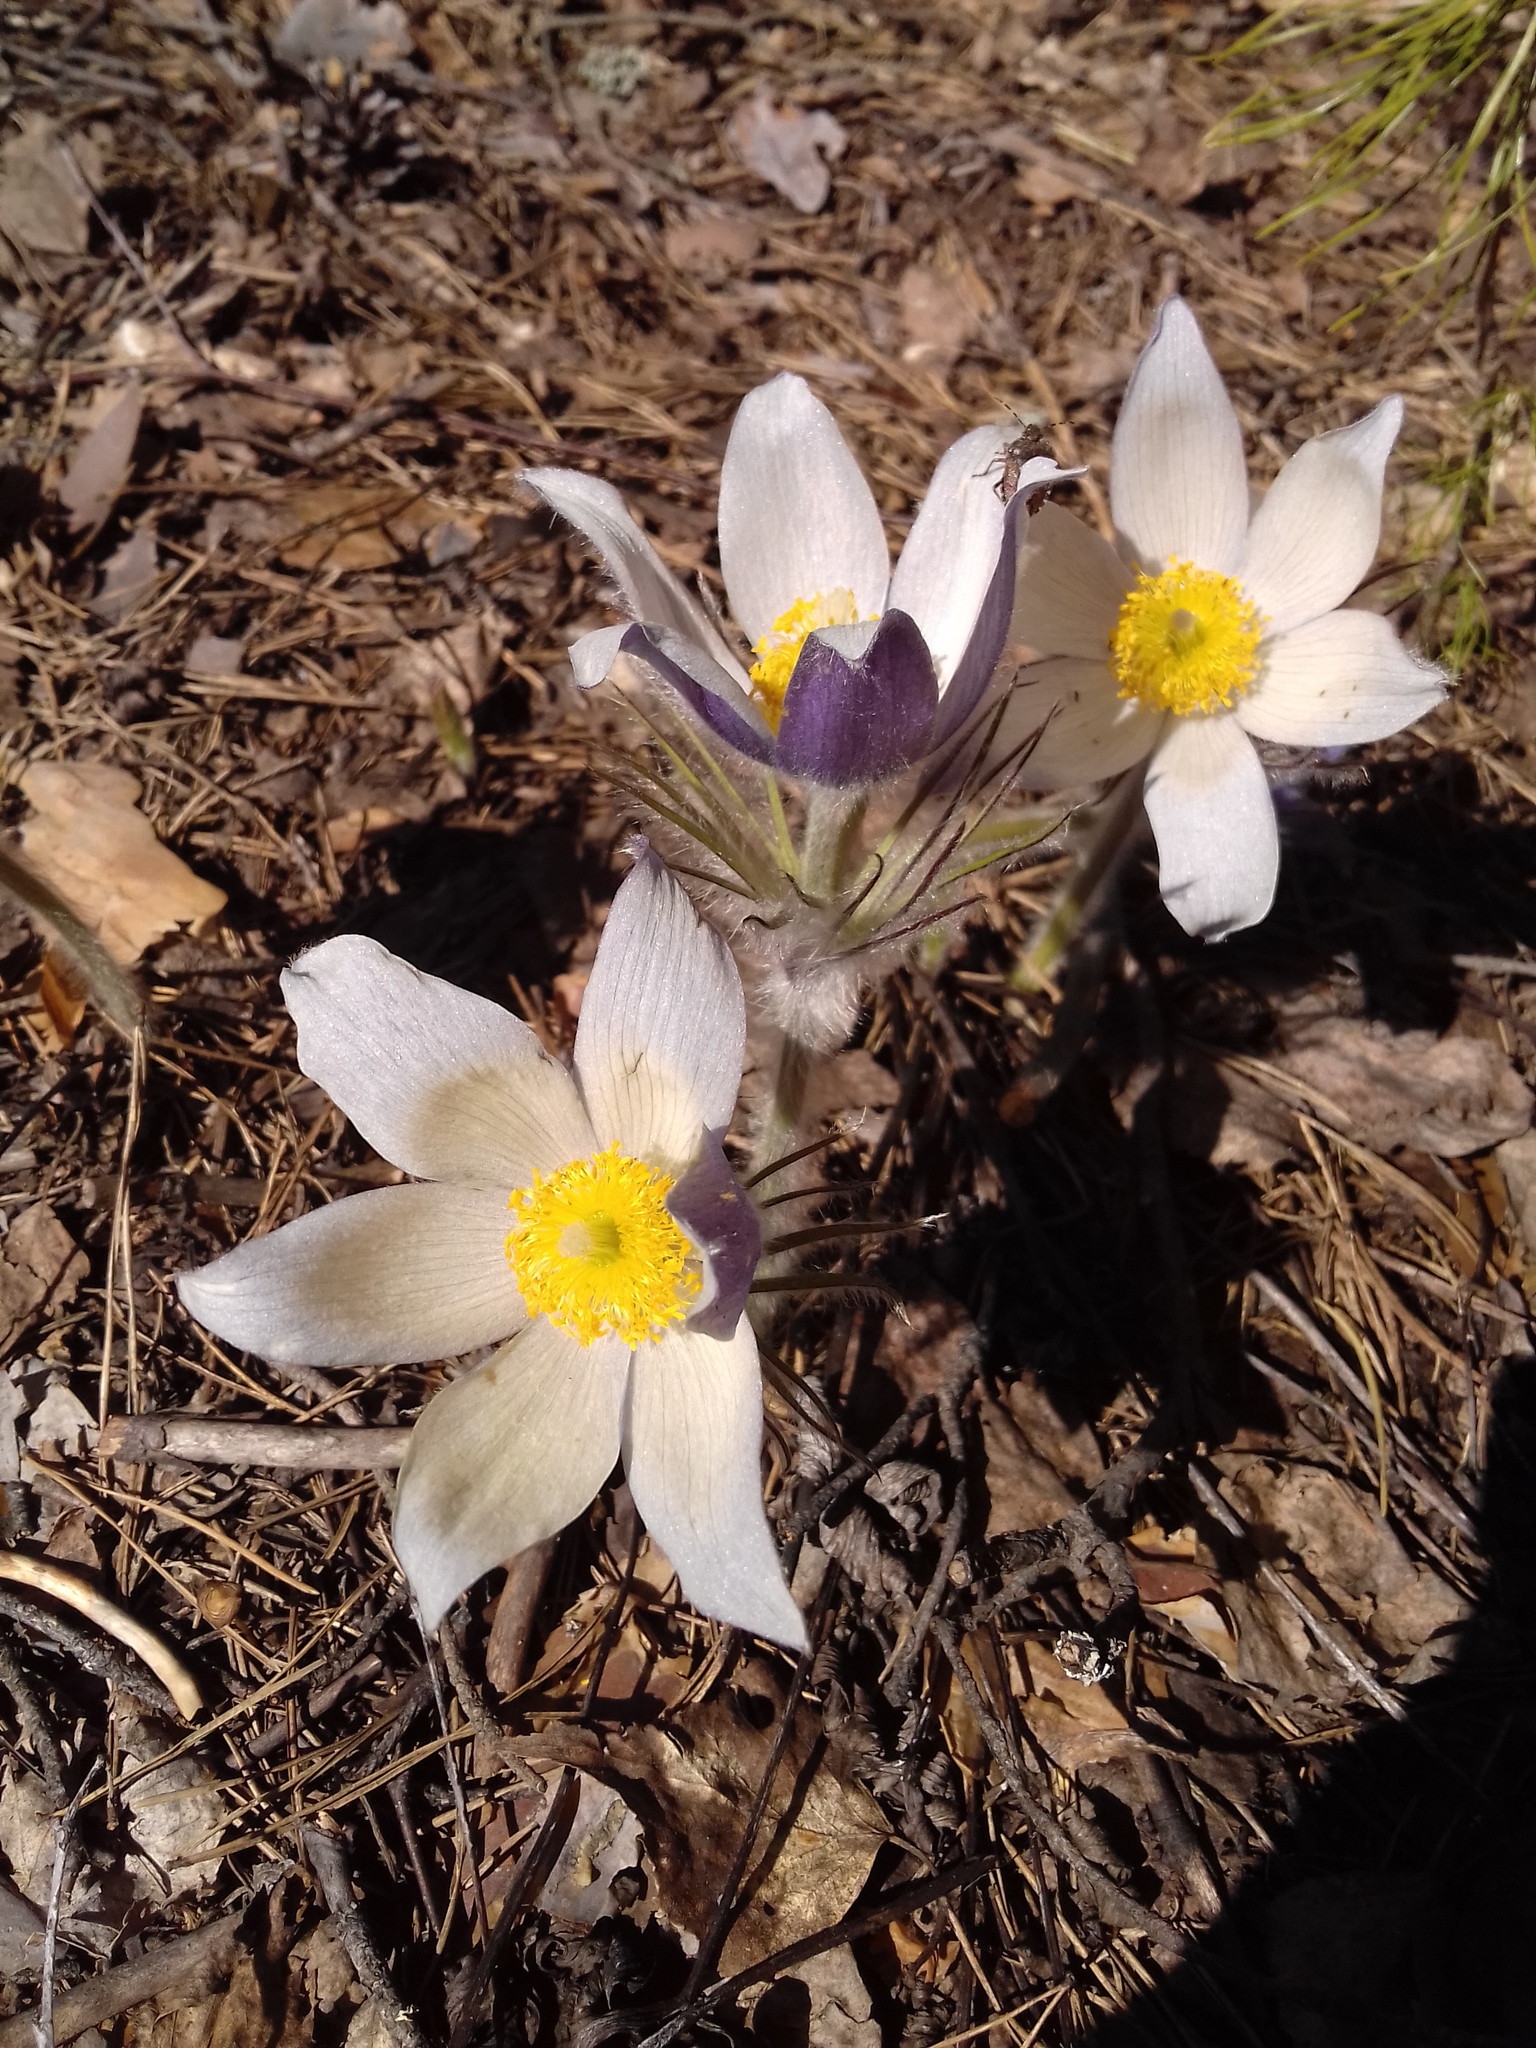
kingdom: Plantae
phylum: Tracheophyta
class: Magnoliopsida
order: Ranunculales
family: Ranunculaceae
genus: Pulsatilla
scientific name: Pulsatilla patens
